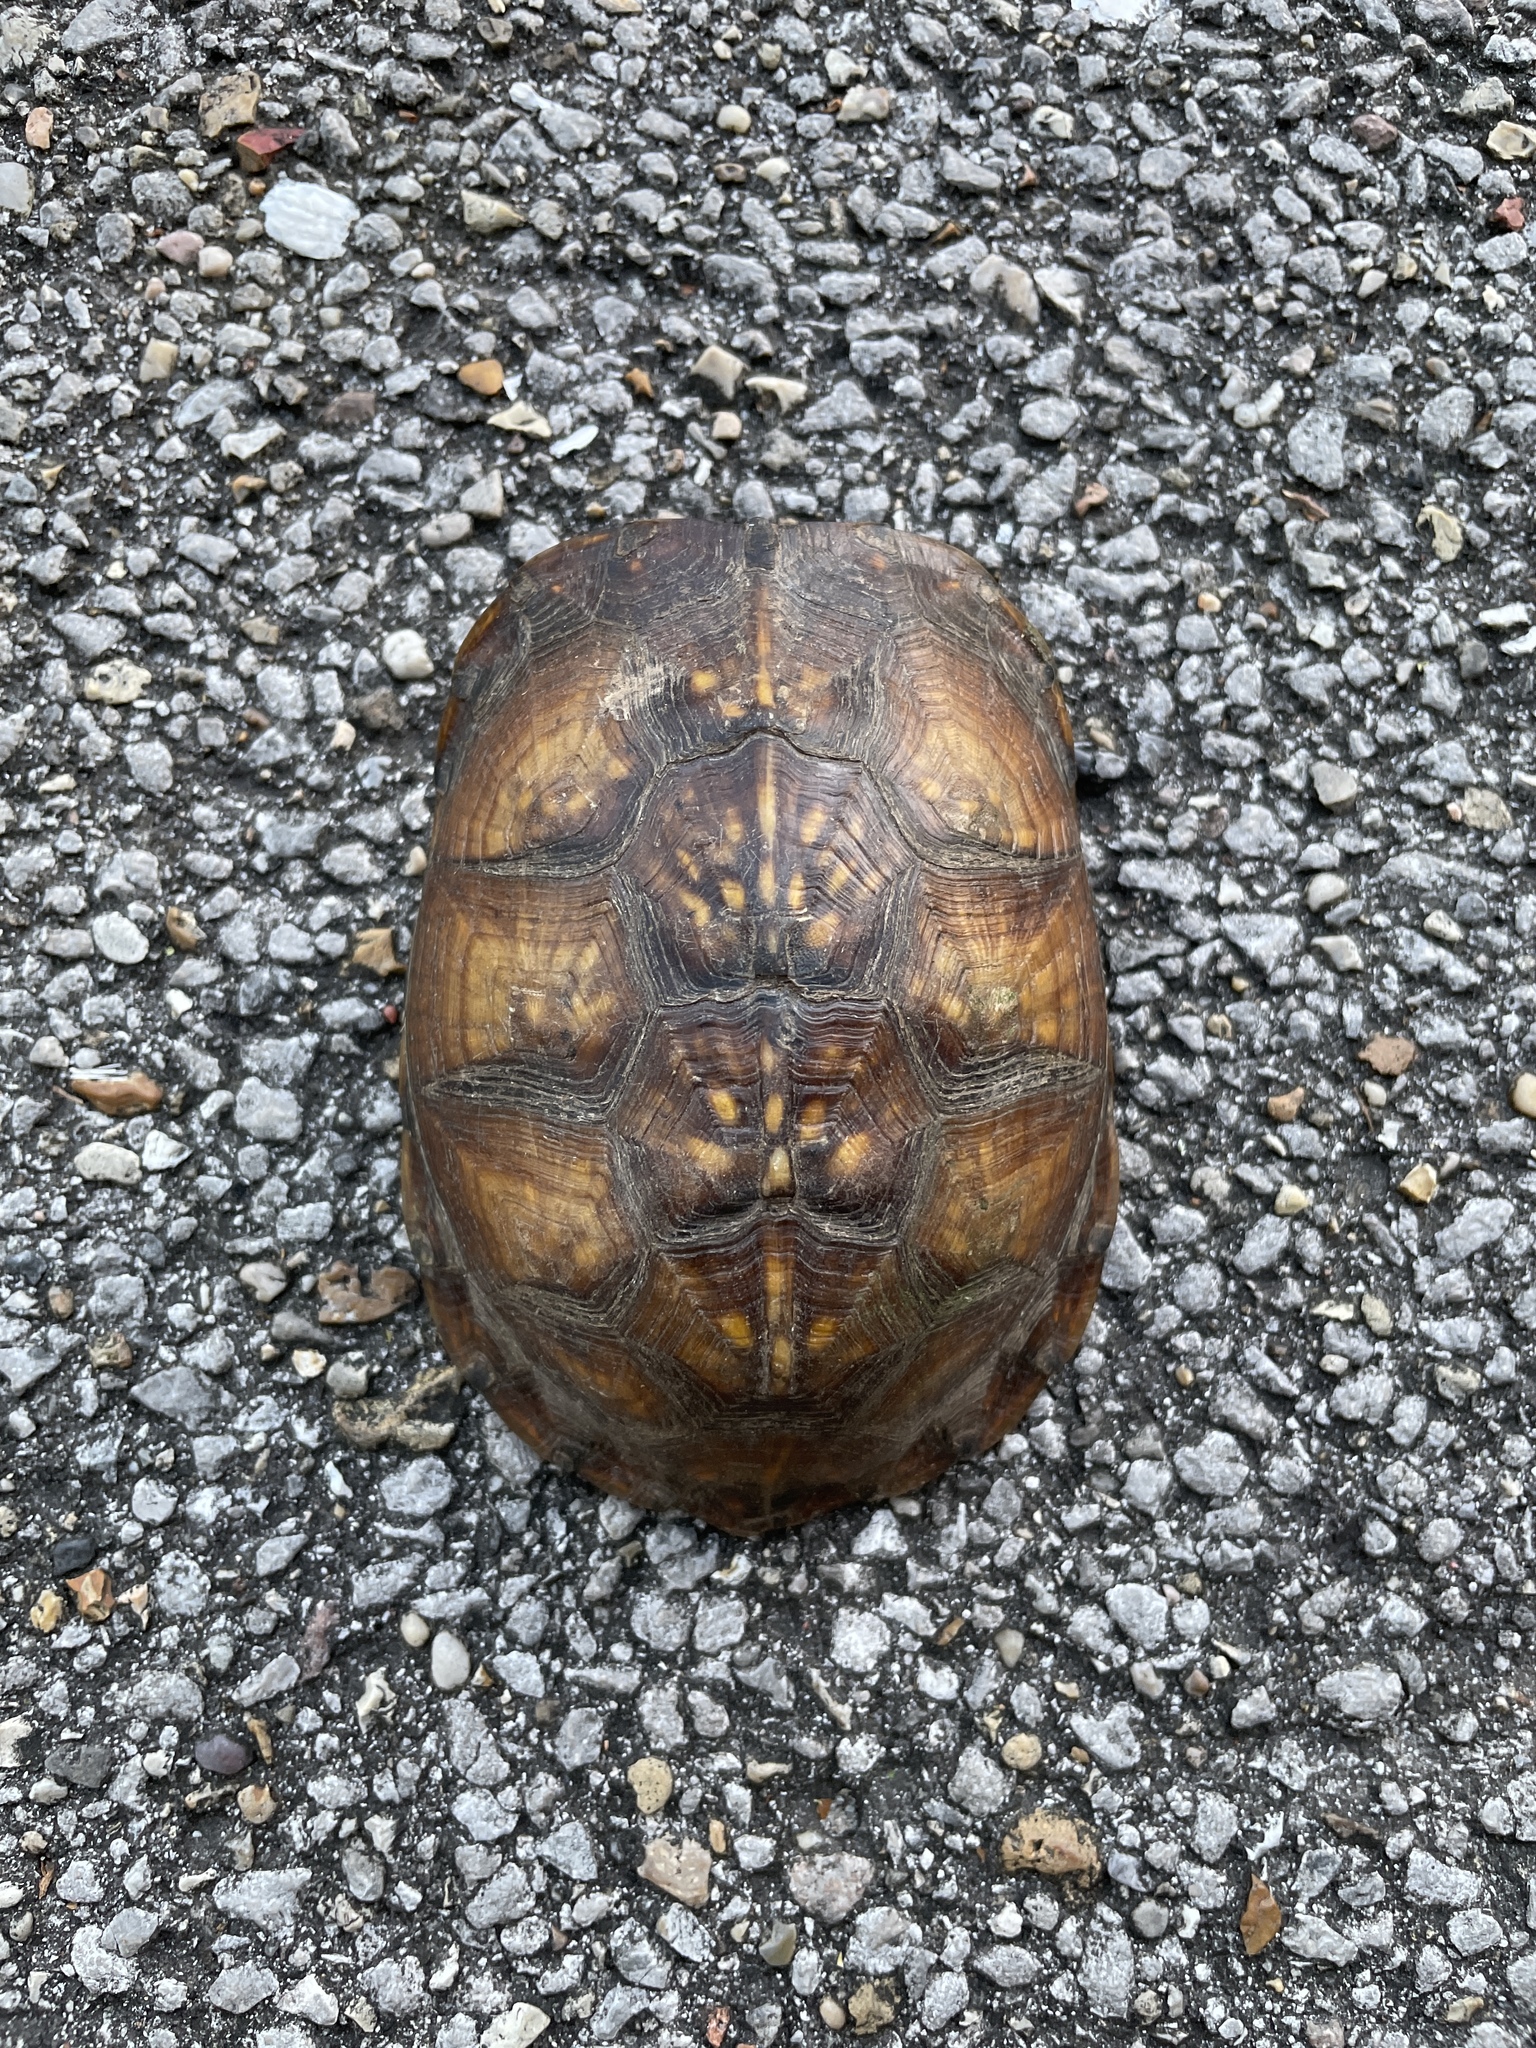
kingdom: Animalia
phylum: Chordata
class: Testudines
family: Emydidae
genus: Terrapene
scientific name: Terrapene carolina
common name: Common box turtle
